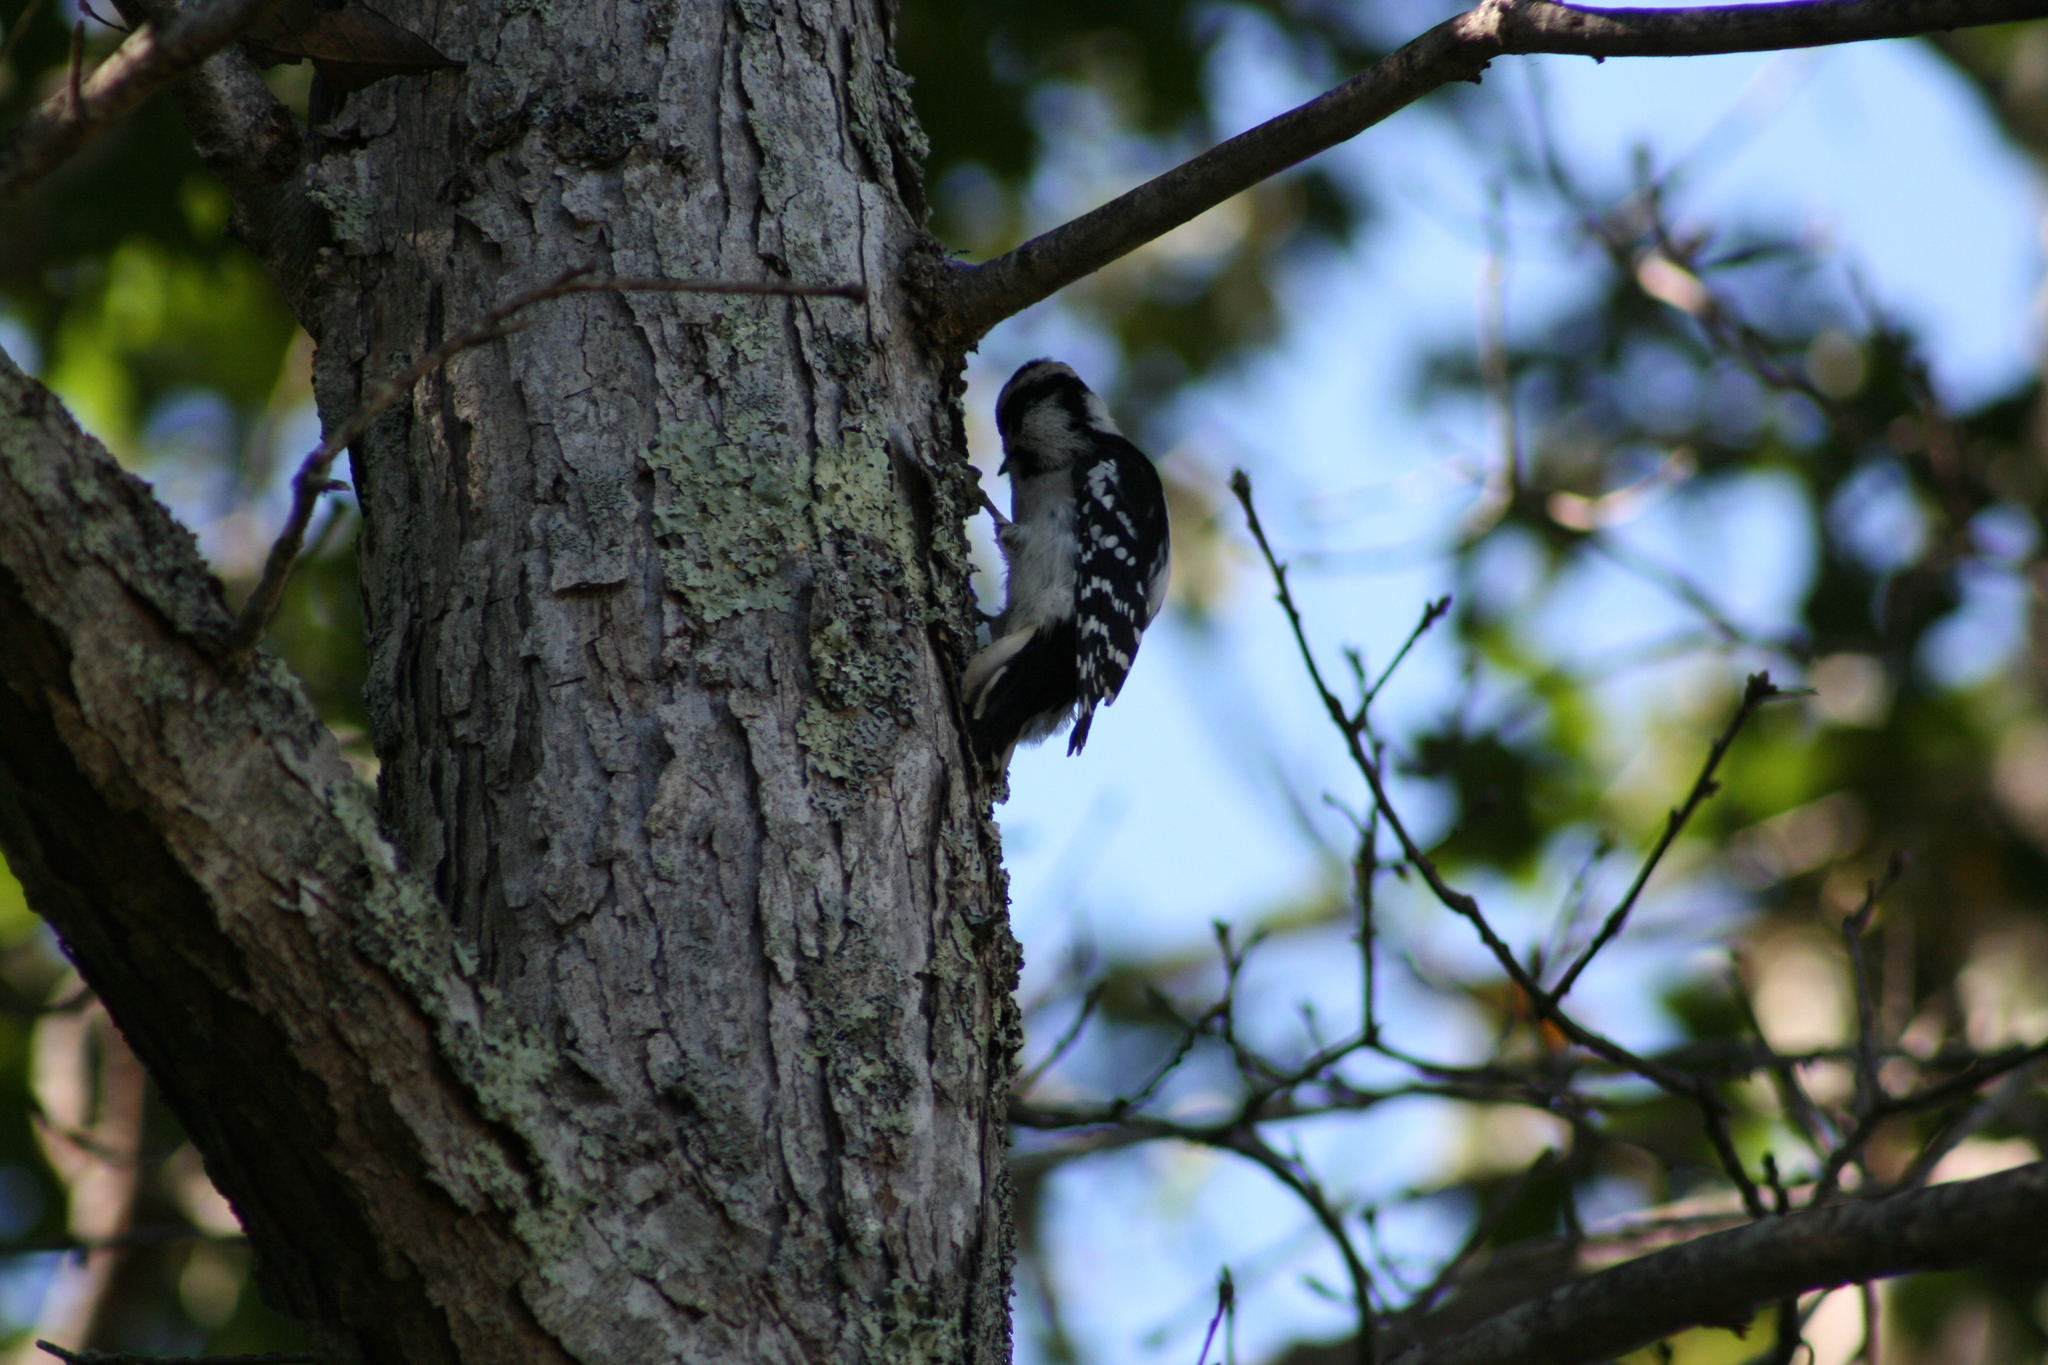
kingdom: Animalia
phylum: Chordata
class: Aves
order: Piciformes
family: Picidae
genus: Dryobates
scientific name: Dryobates pubescens
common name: Downy woodpecker
